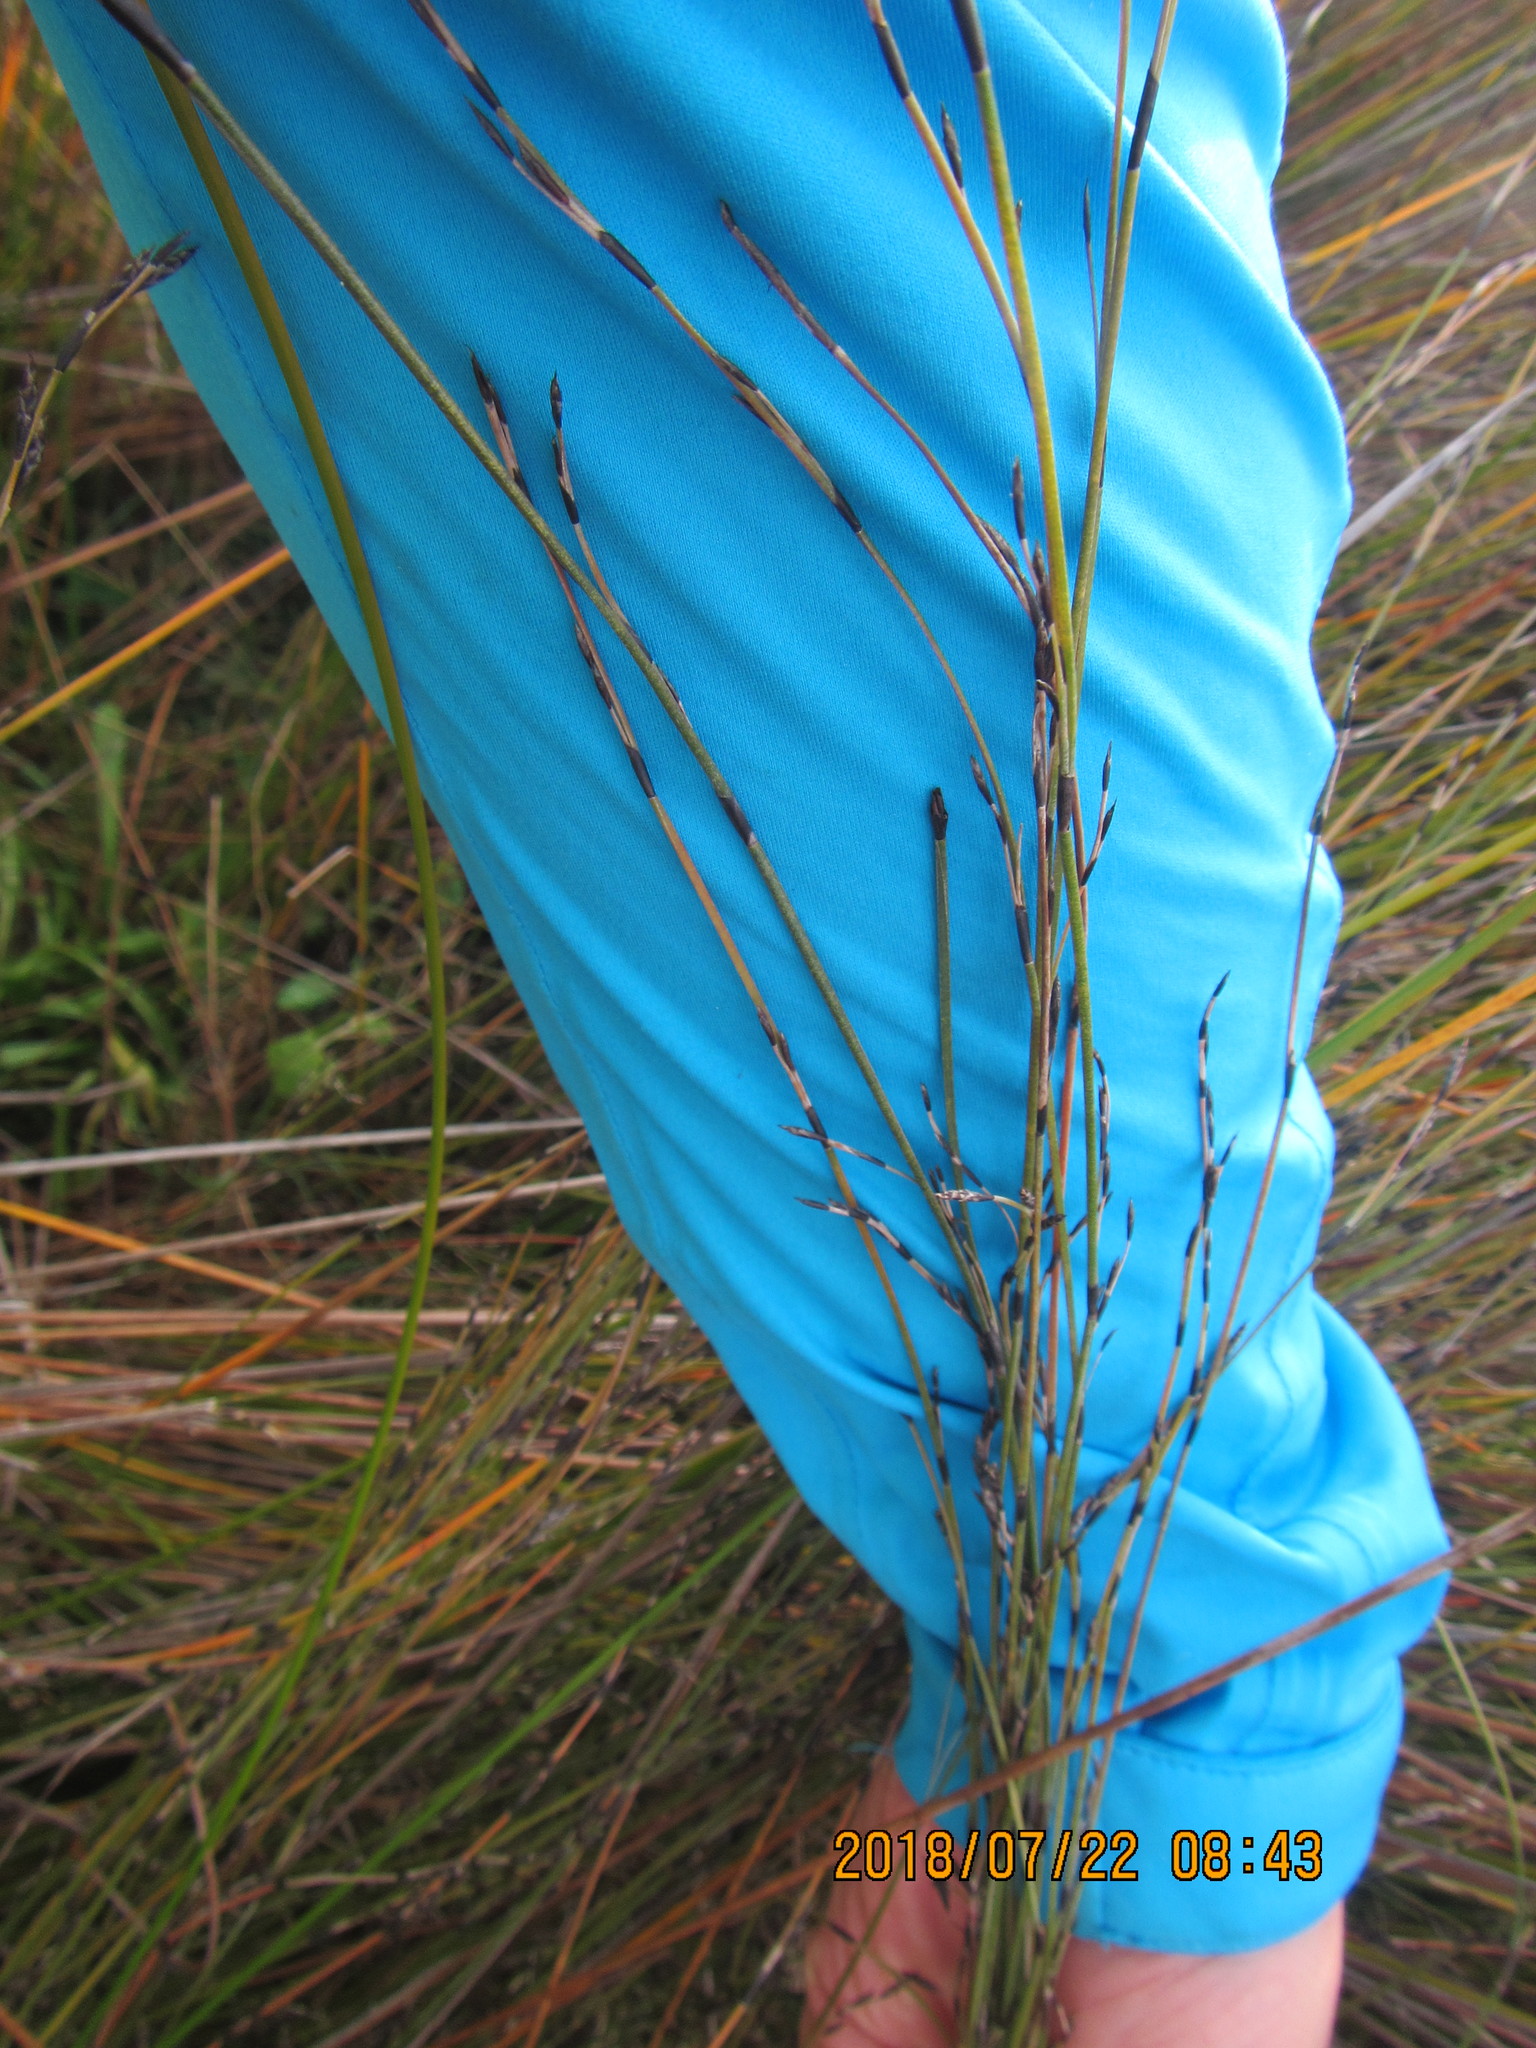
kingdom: Plantae
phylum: Tracheophyta
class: Liliopsida
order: Poales
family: Restionaceae
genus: Apodasmia
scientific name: Apodasmia similis
